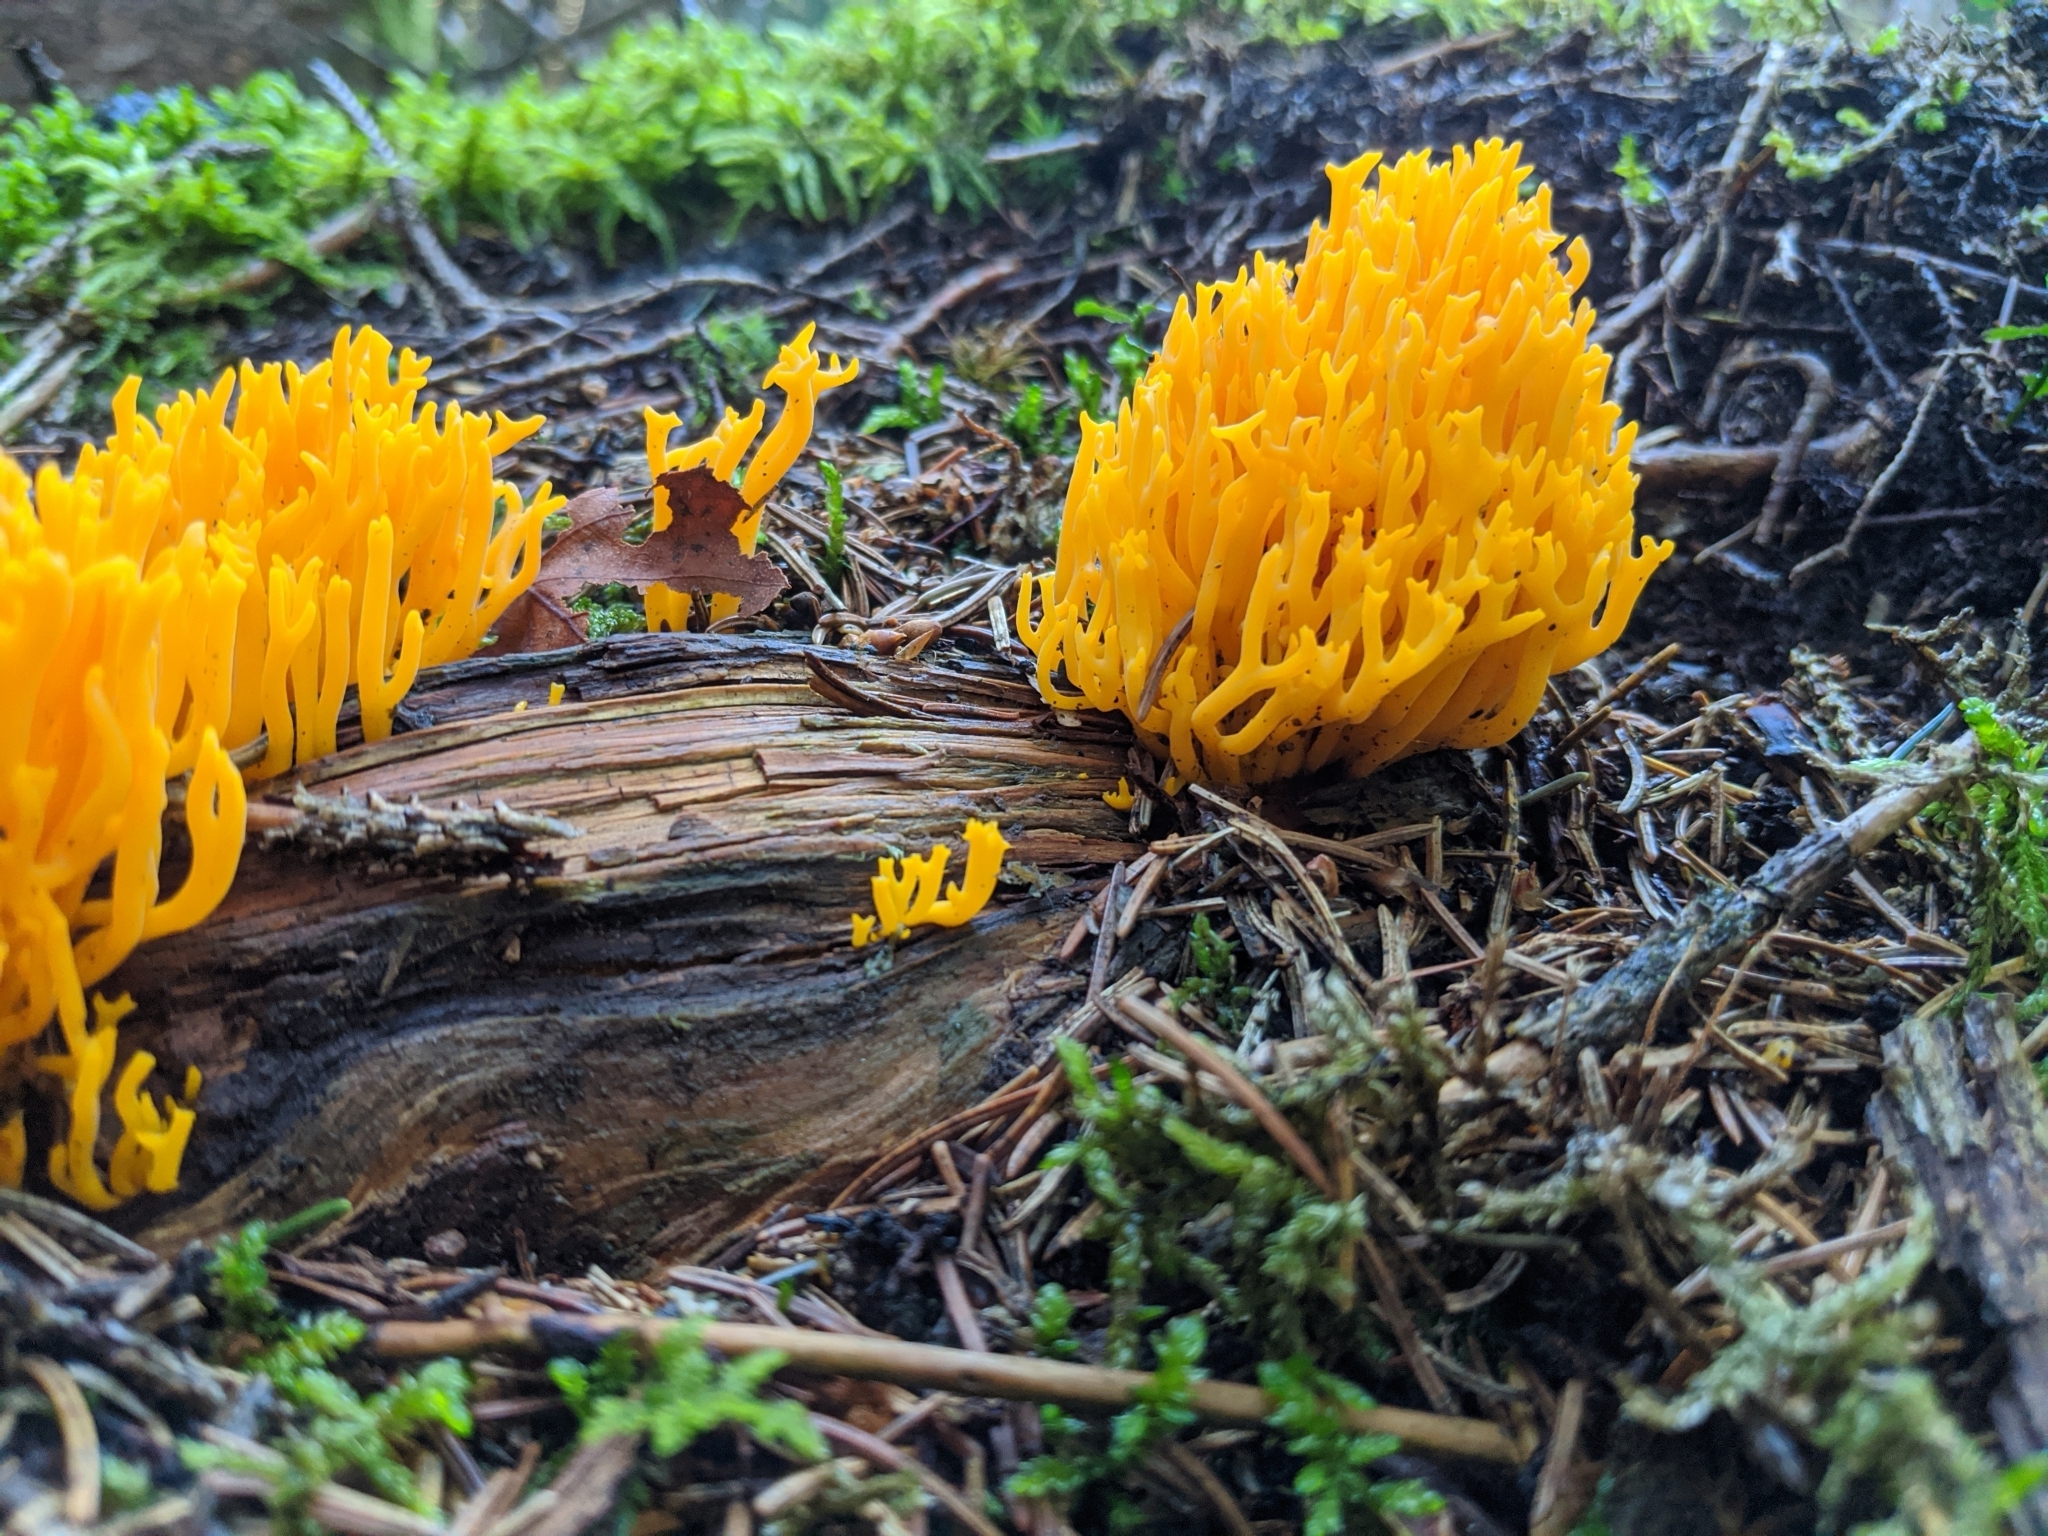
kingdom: Fungi
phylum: Basidiomycota
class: Dacrymycetes
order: Dacrymycetales
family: Dacrymycetaceae
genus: Calocera
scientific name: Calocera viscosa
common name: Yellow stagshorn
